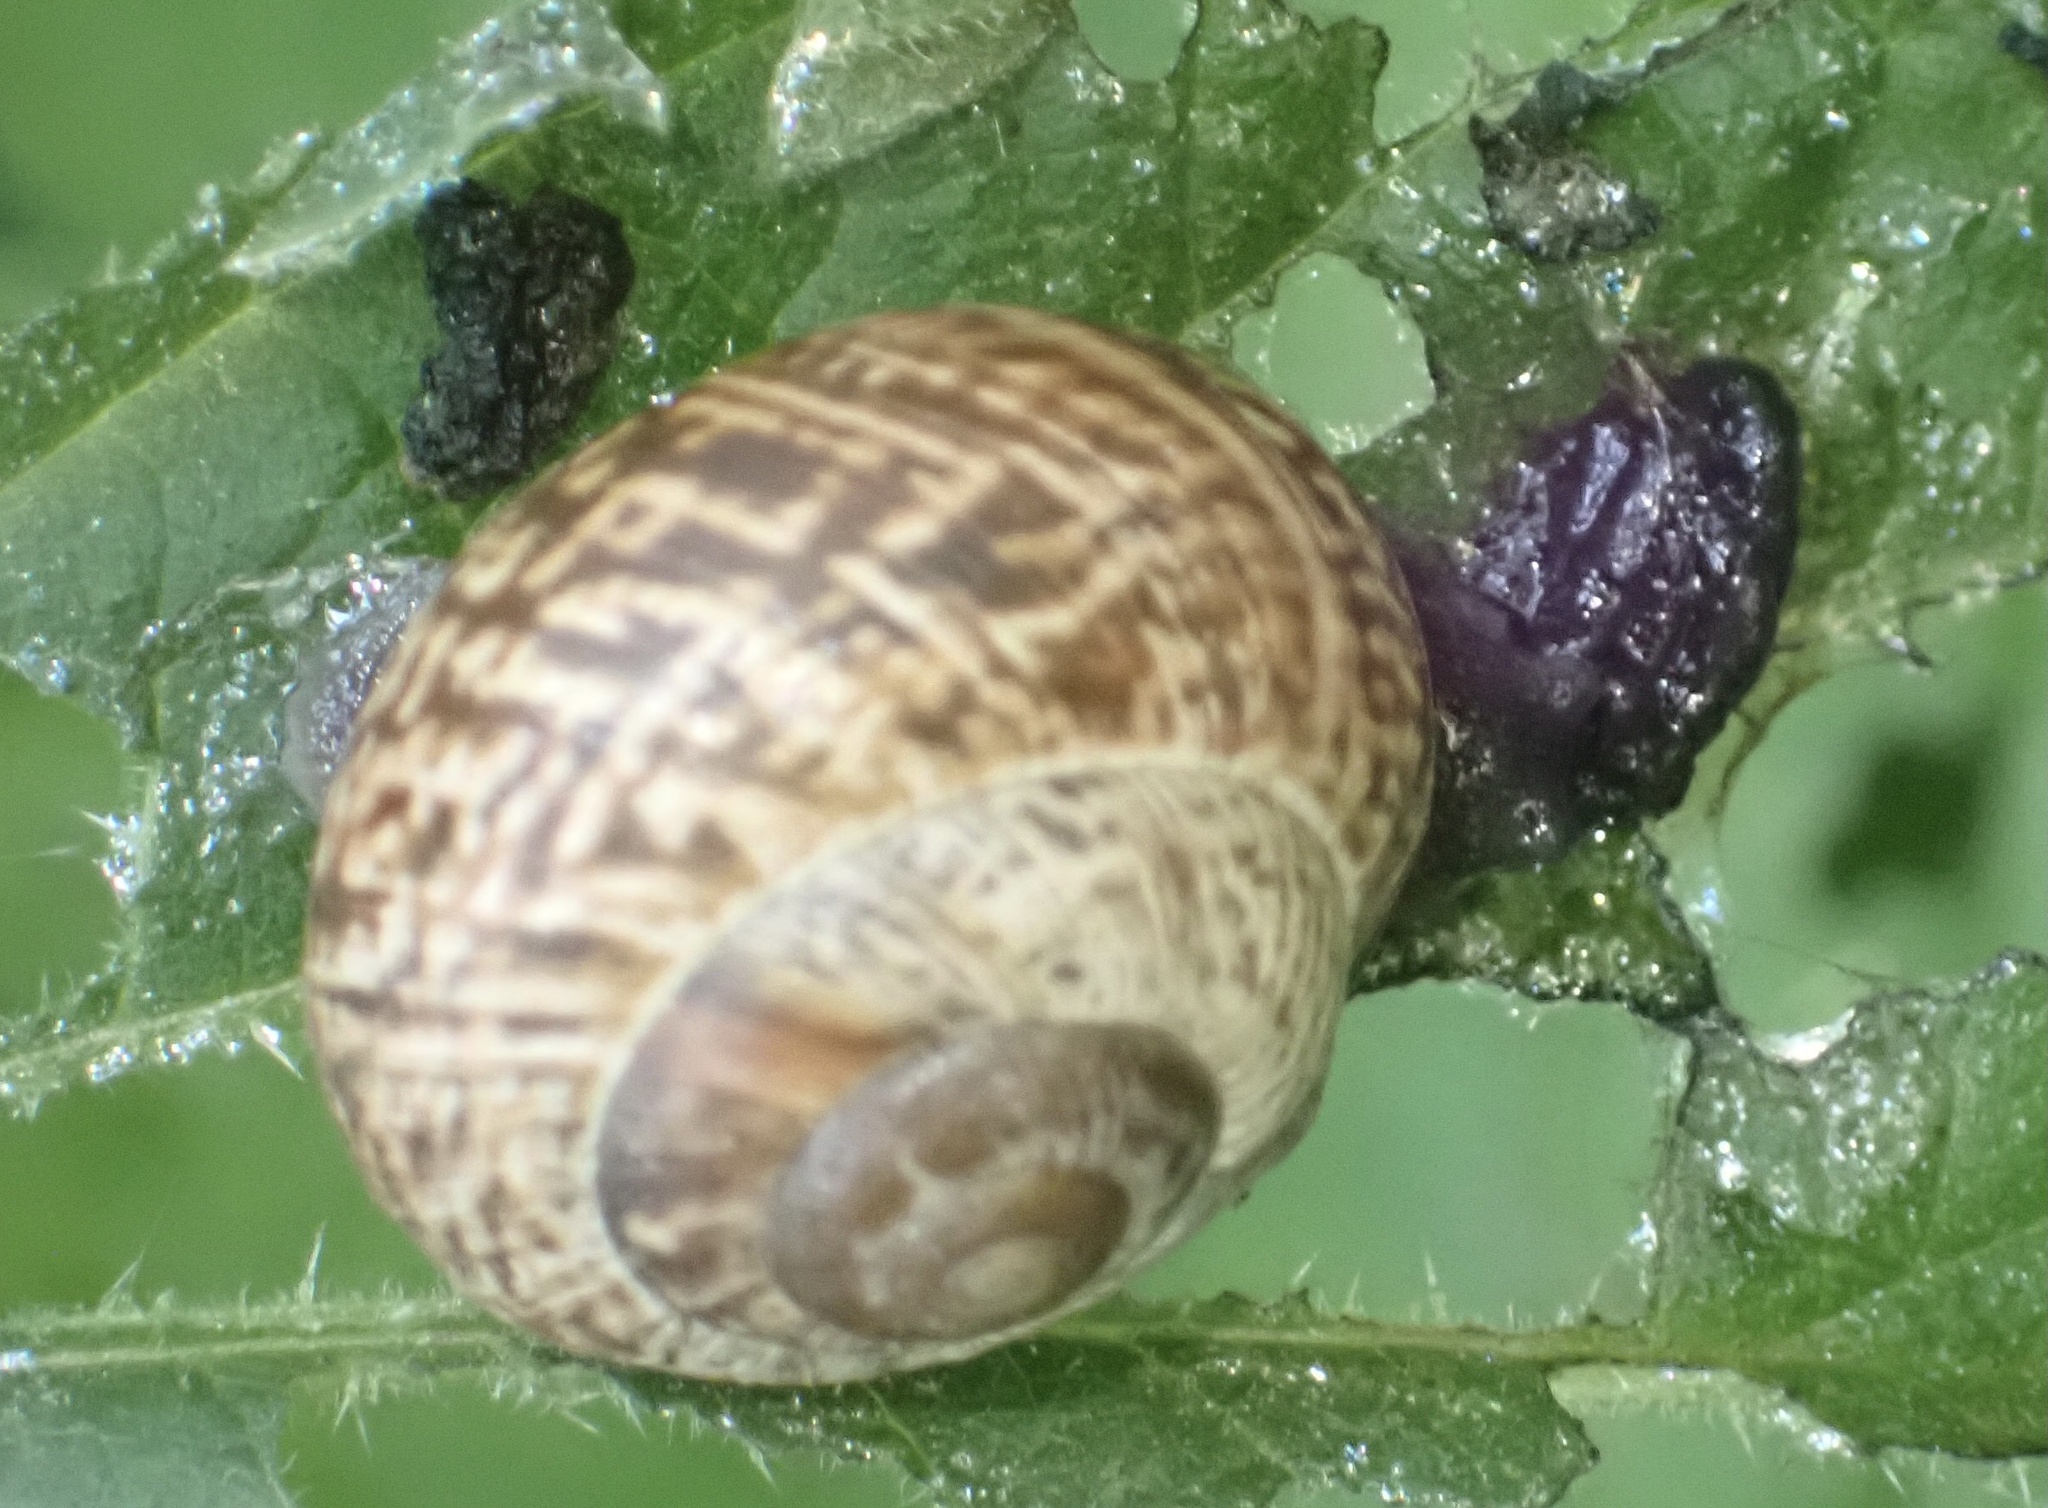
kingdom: Animalia
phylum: Mollusca
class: Gastropoda
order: Stylommatophora
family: Helicidae
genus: Arianta
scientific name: Arianta arbustorum
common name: Copse snail
